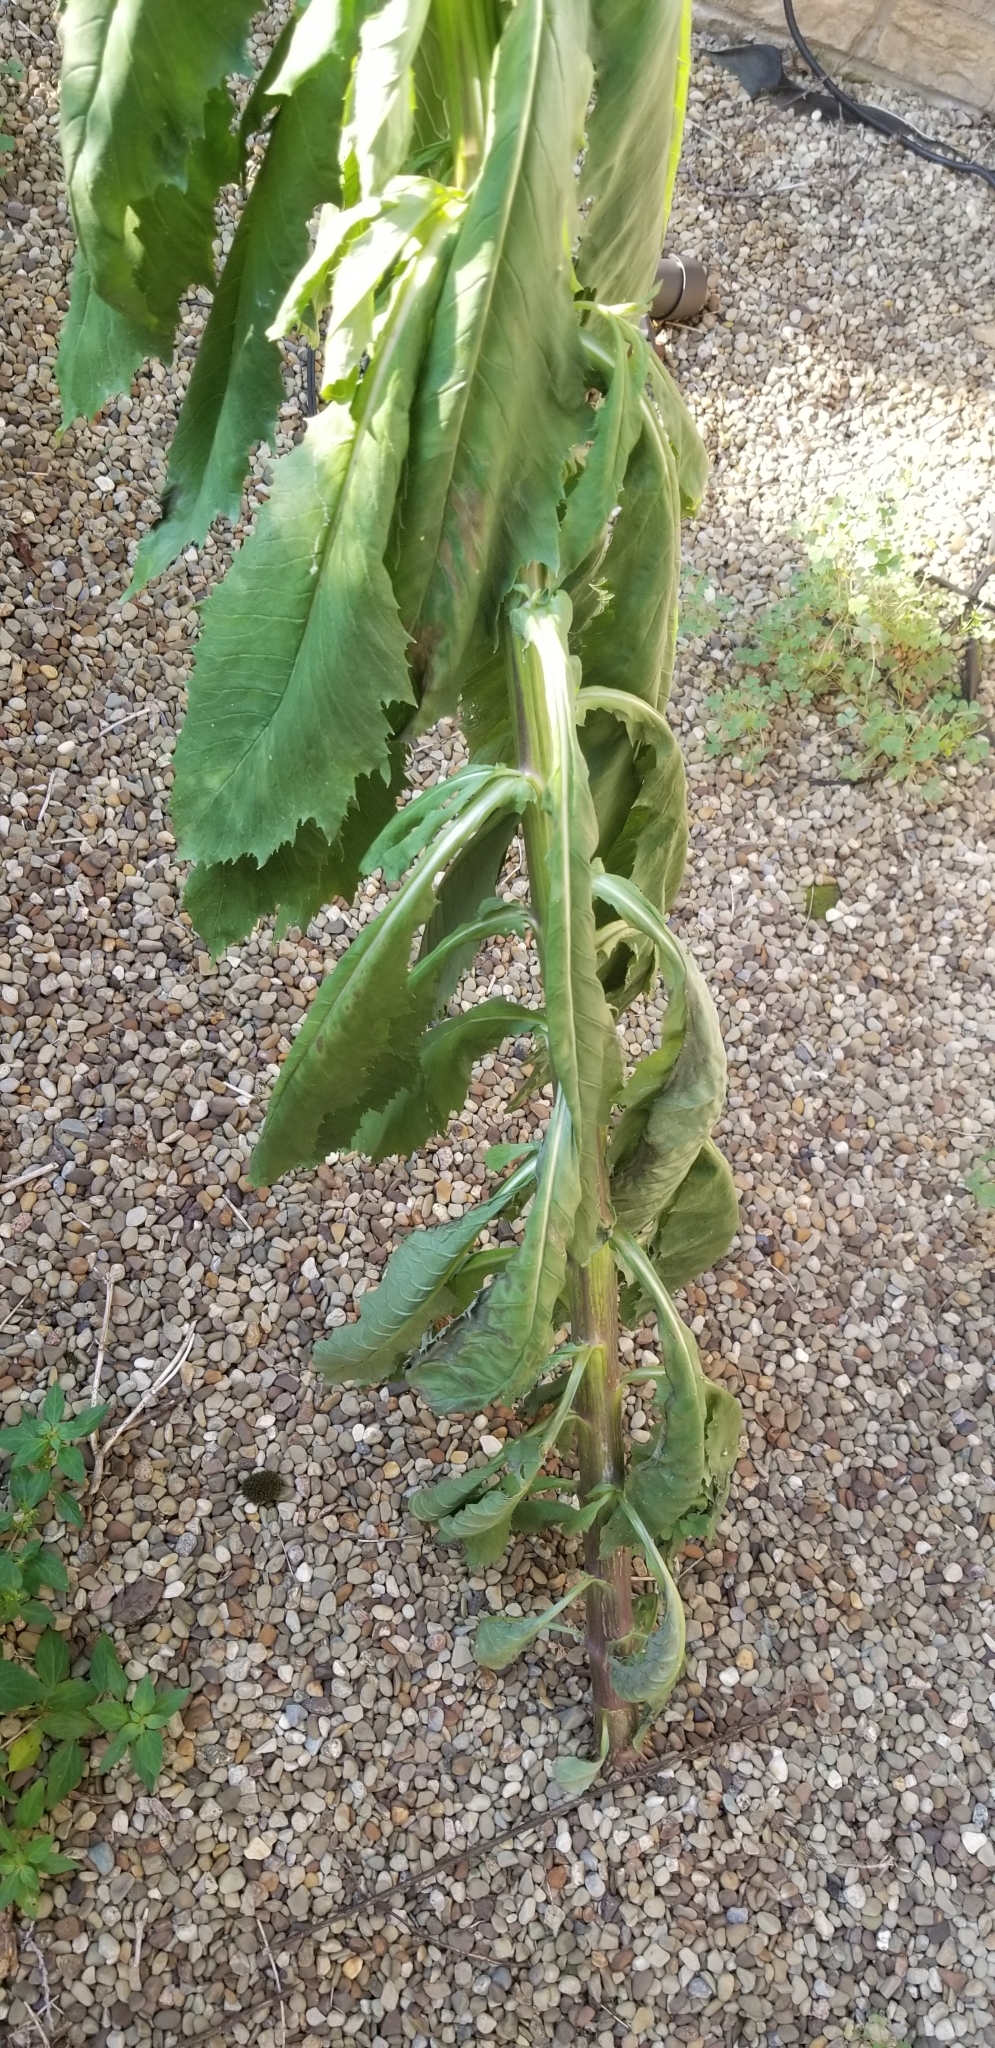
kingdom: Plantae
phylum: Tracheophyta
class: Magnoliopsida
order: Asterales
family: Asteraceae
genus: Erechtites
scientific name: Erechtites hieraciifolius
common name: American burnweed
